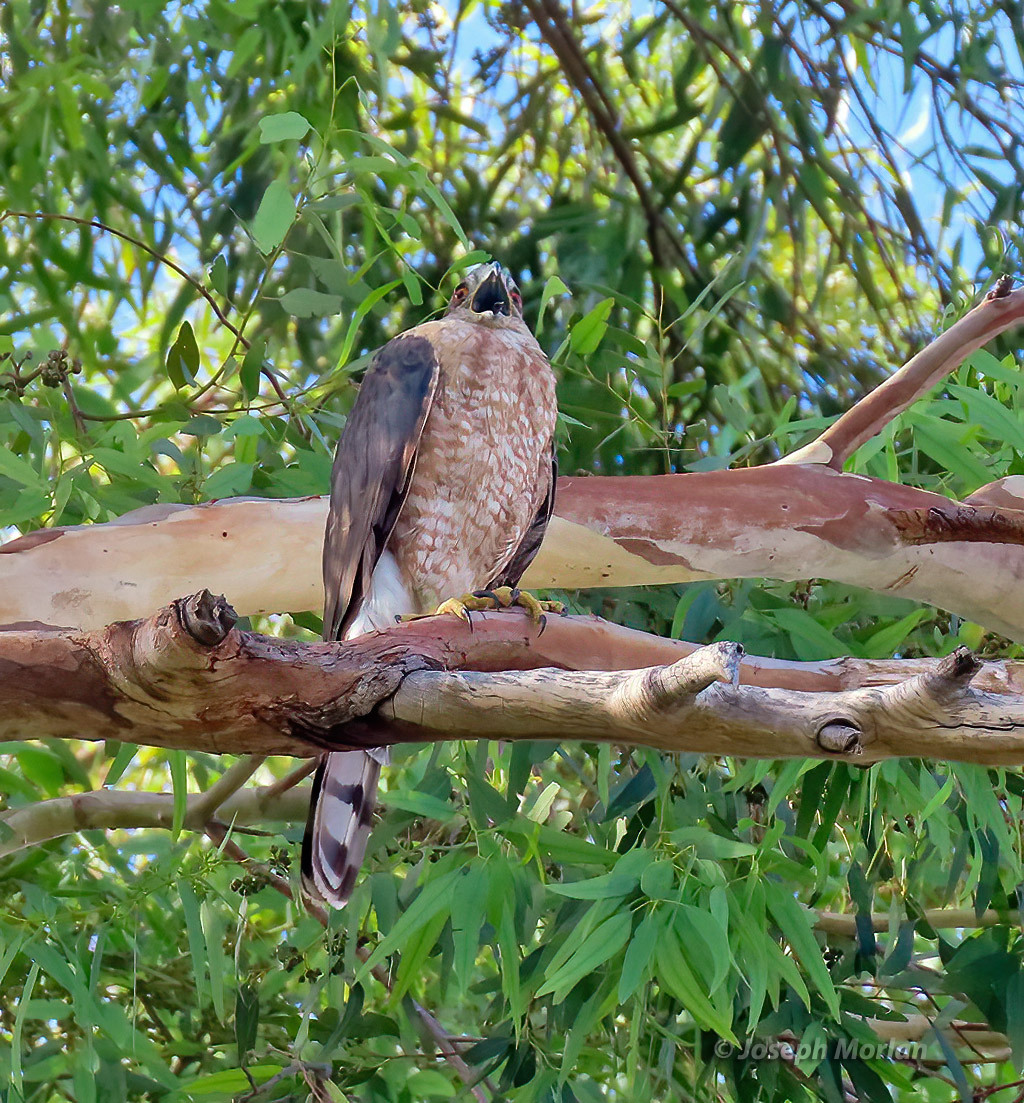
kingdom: Animalia
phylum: Chordata
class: Aves
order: Accipitriformes
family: Accipitridae
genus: Accipiter
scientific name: Accipiter cooperii
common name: Cooper's hawk
